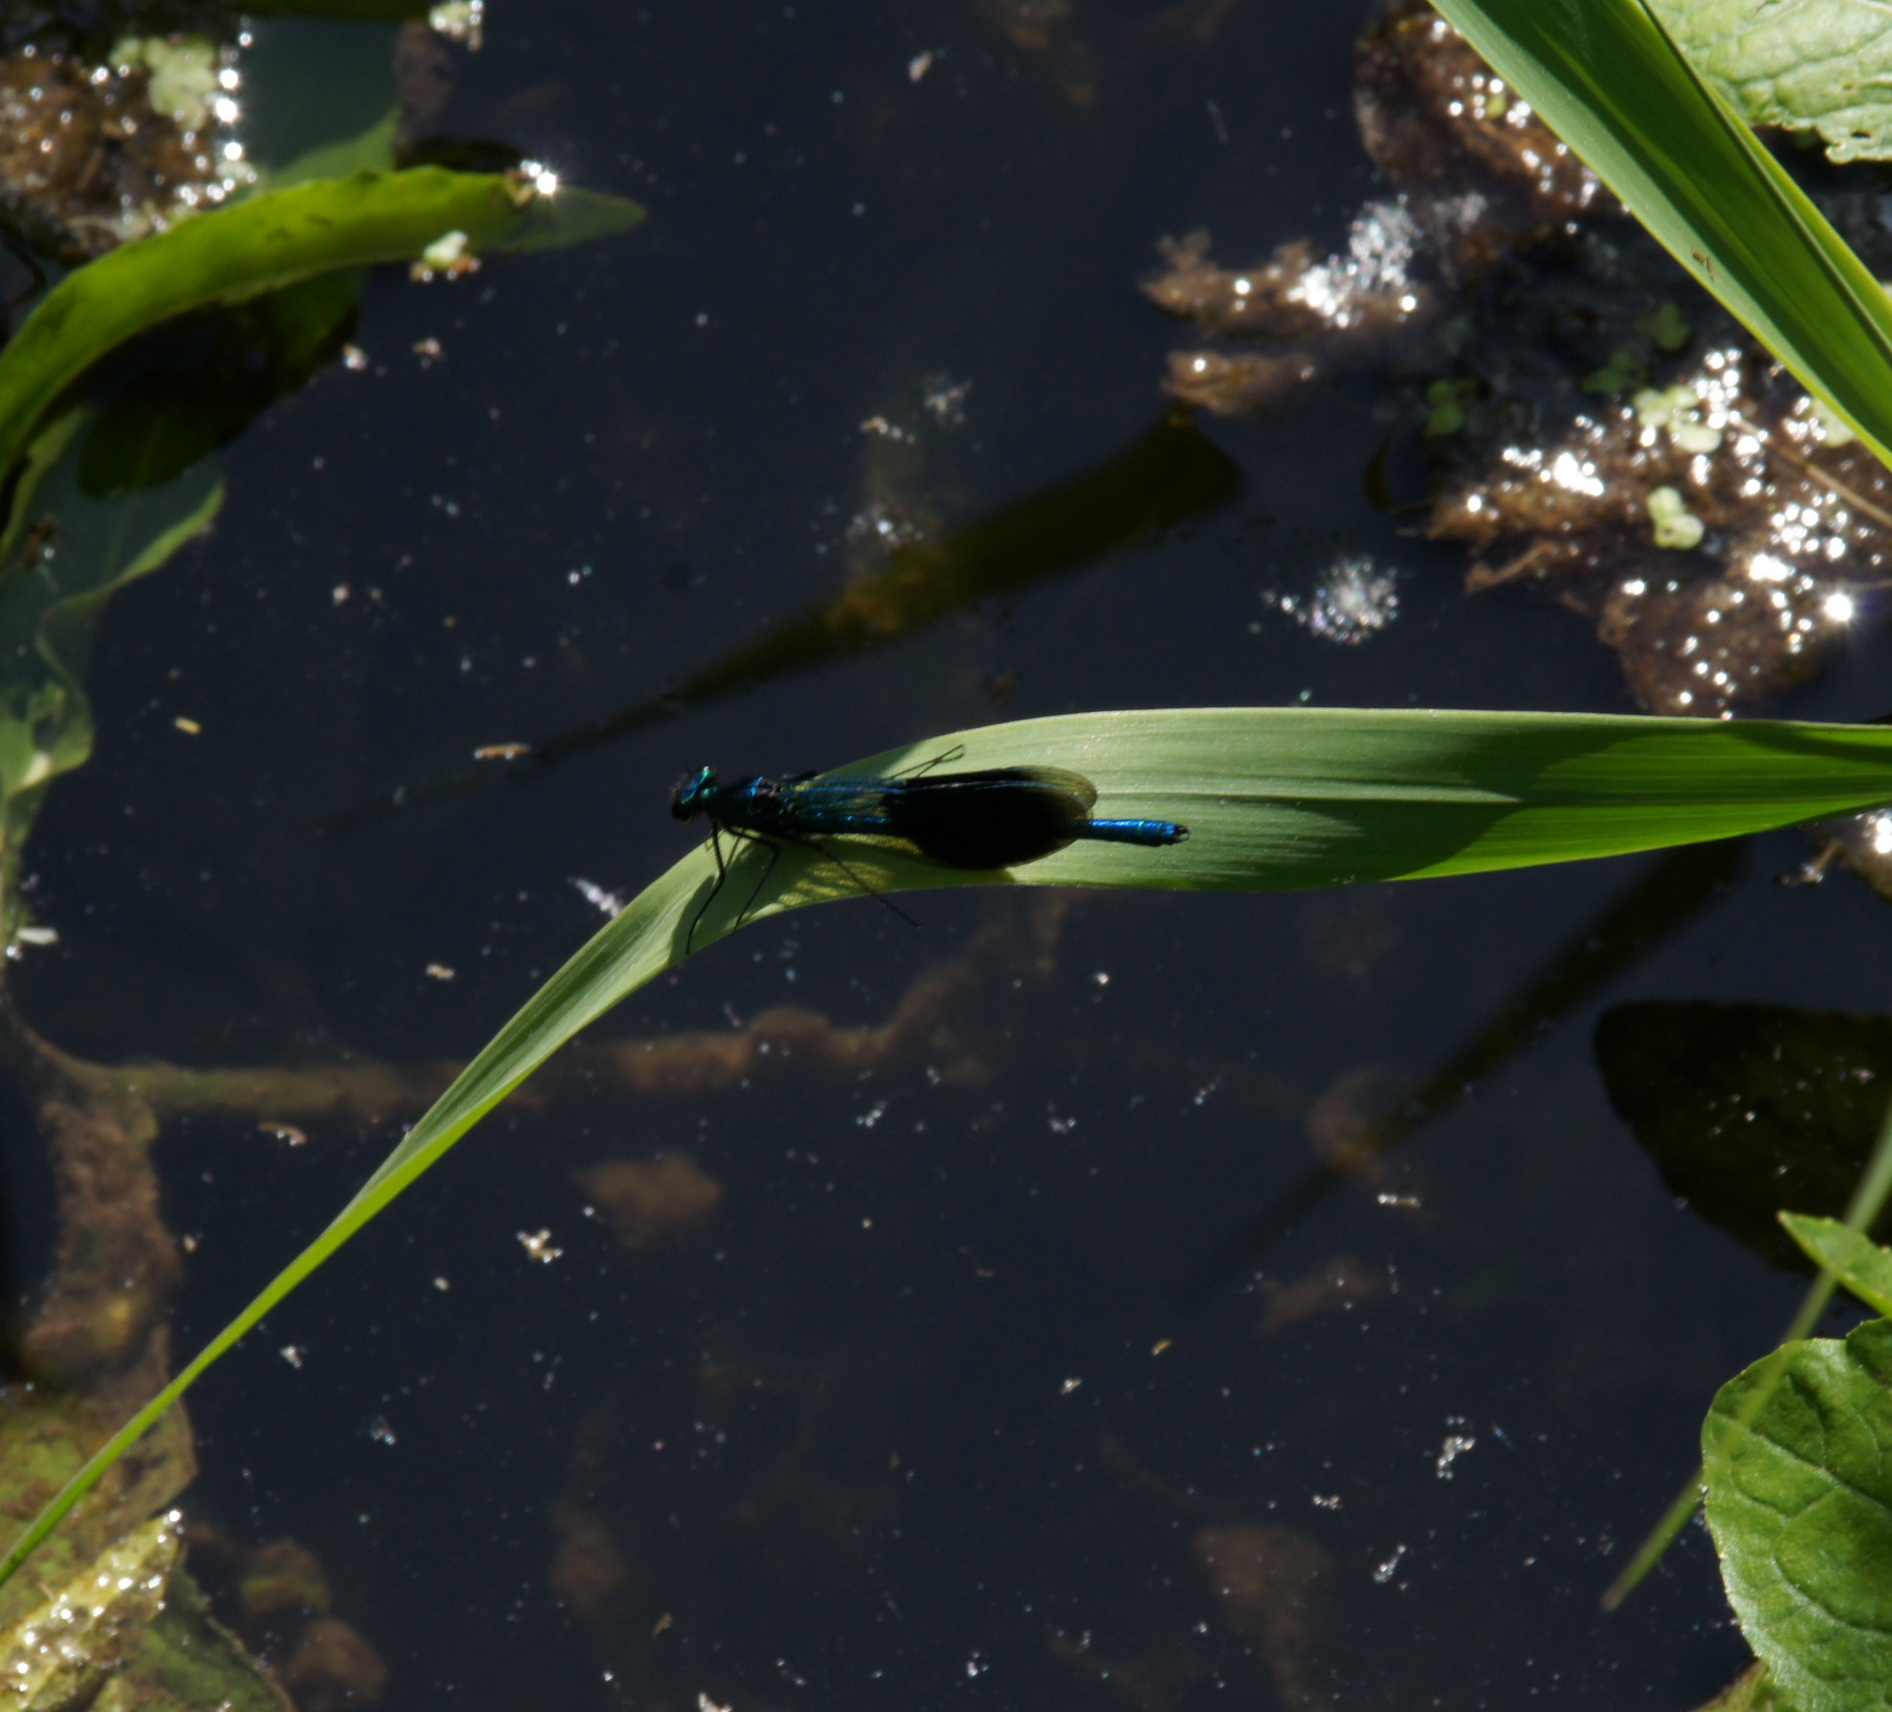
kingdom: Animalia
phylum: Arthropoda
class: Insecta
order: Odonata
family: Calopterygidae
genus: Calopteryx
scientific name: Calopteryx splendens
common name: Banded demoiselle
